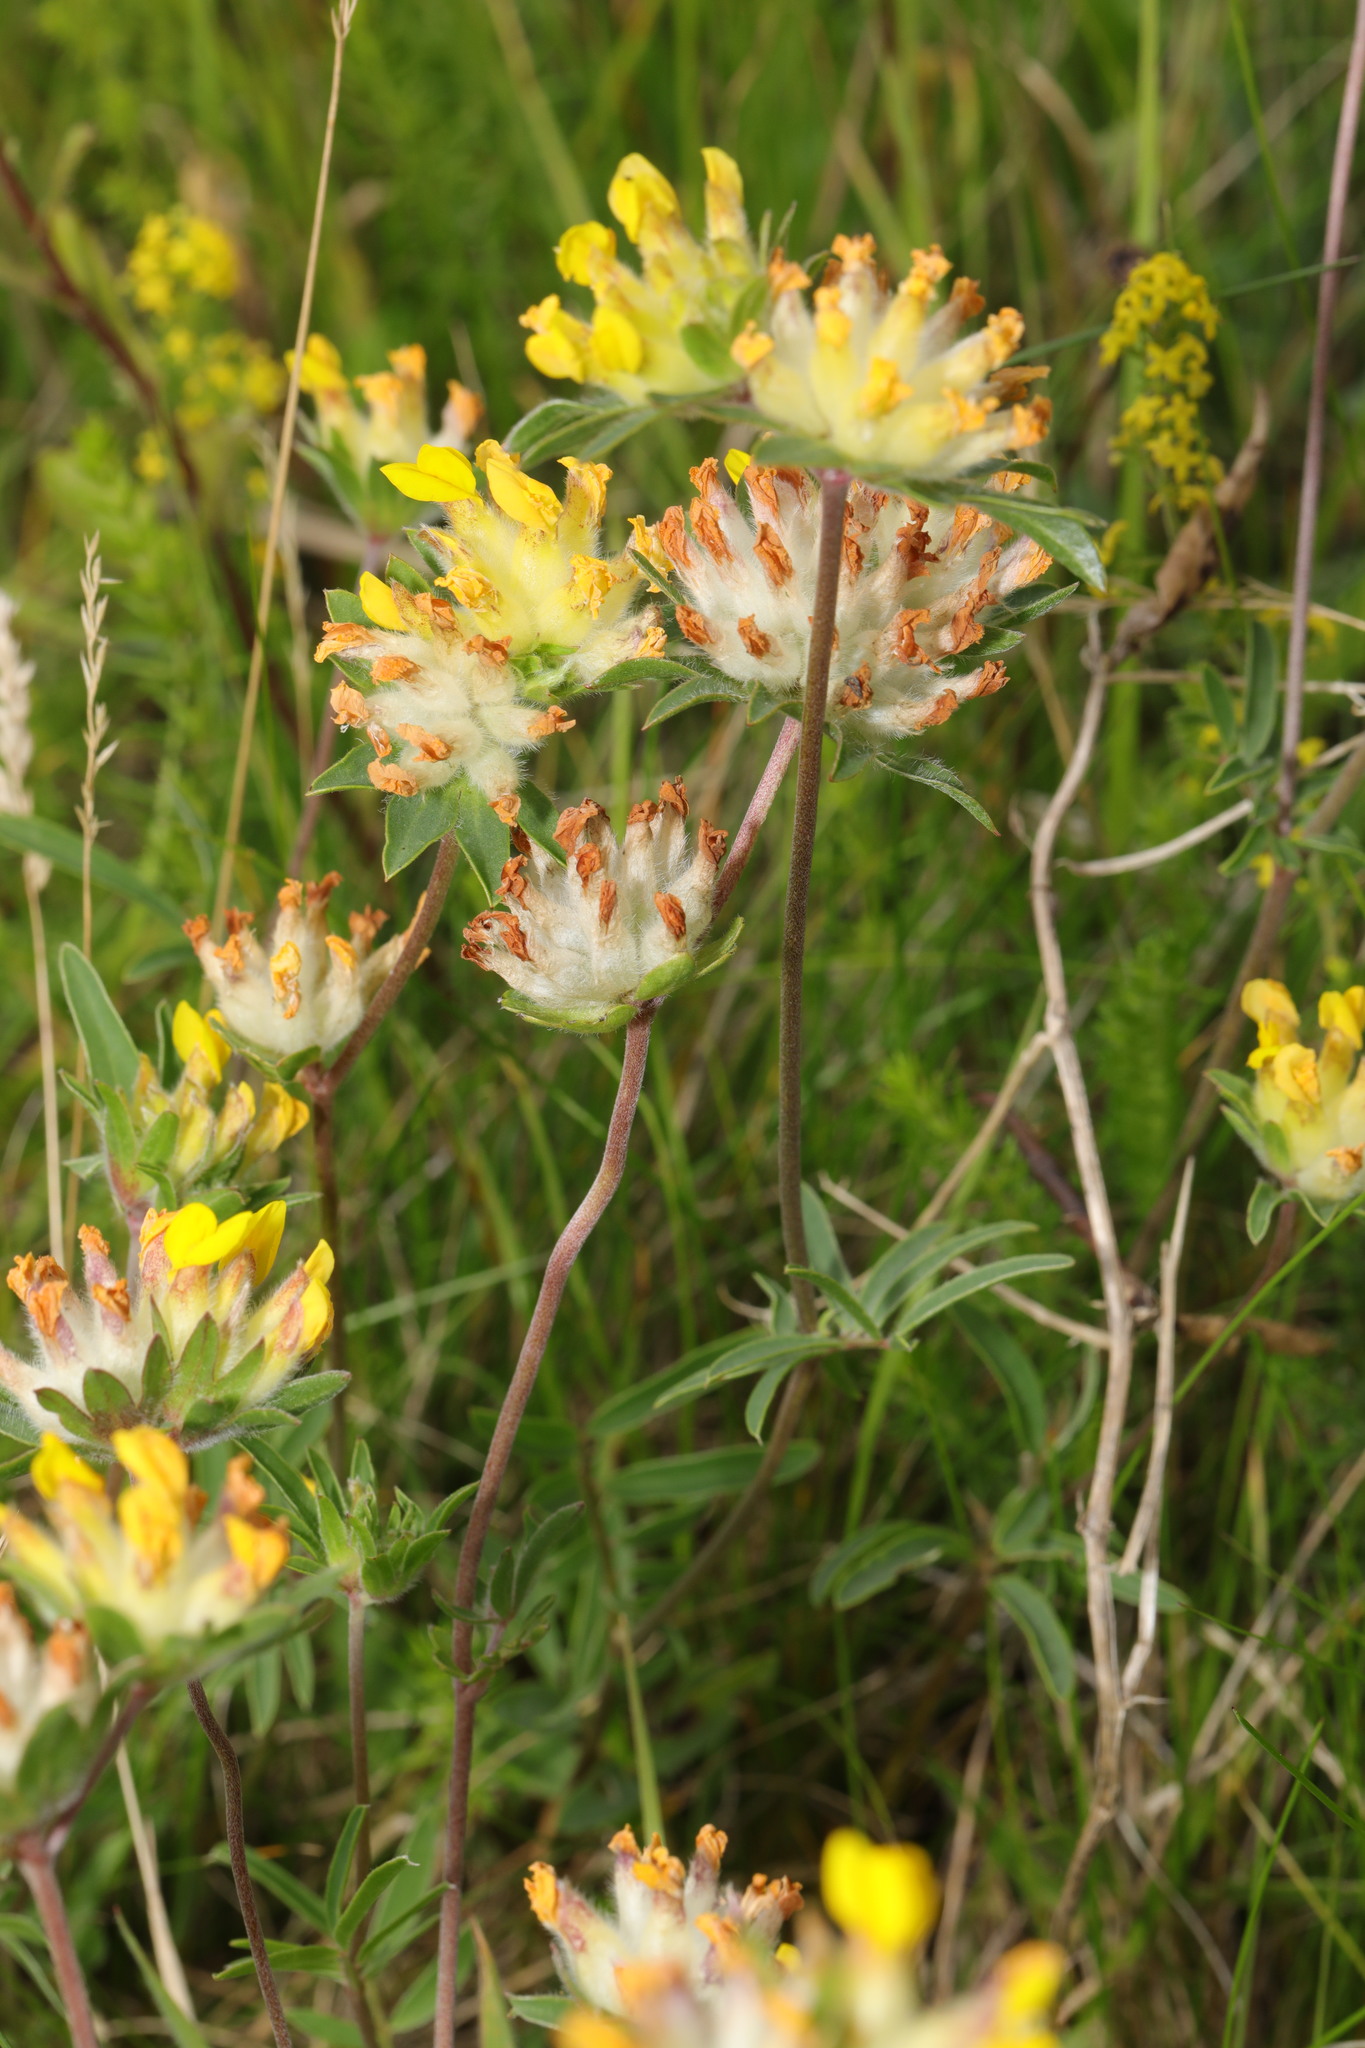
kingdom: Plantae
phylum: Tracheophyta
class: Magnoliopsida
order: Fabales
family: Fabaceae
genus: Anthyllis
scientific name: Anthyllis vulneraria
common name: Kidney vetch
